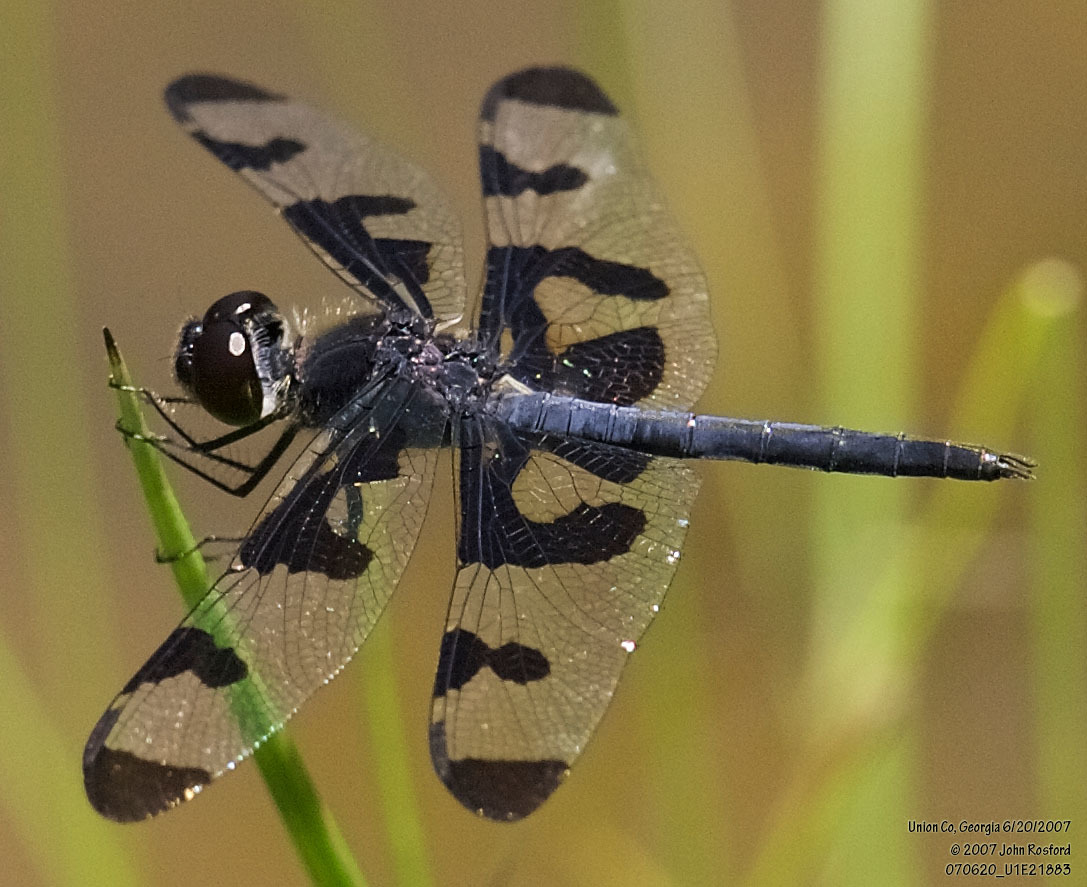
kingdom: Animalia
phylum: Arthropoda
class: Insecta
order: Odonata
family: Libellulidae
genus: Celithemis
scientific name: Celithemis fasciata
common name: Banded pennant
